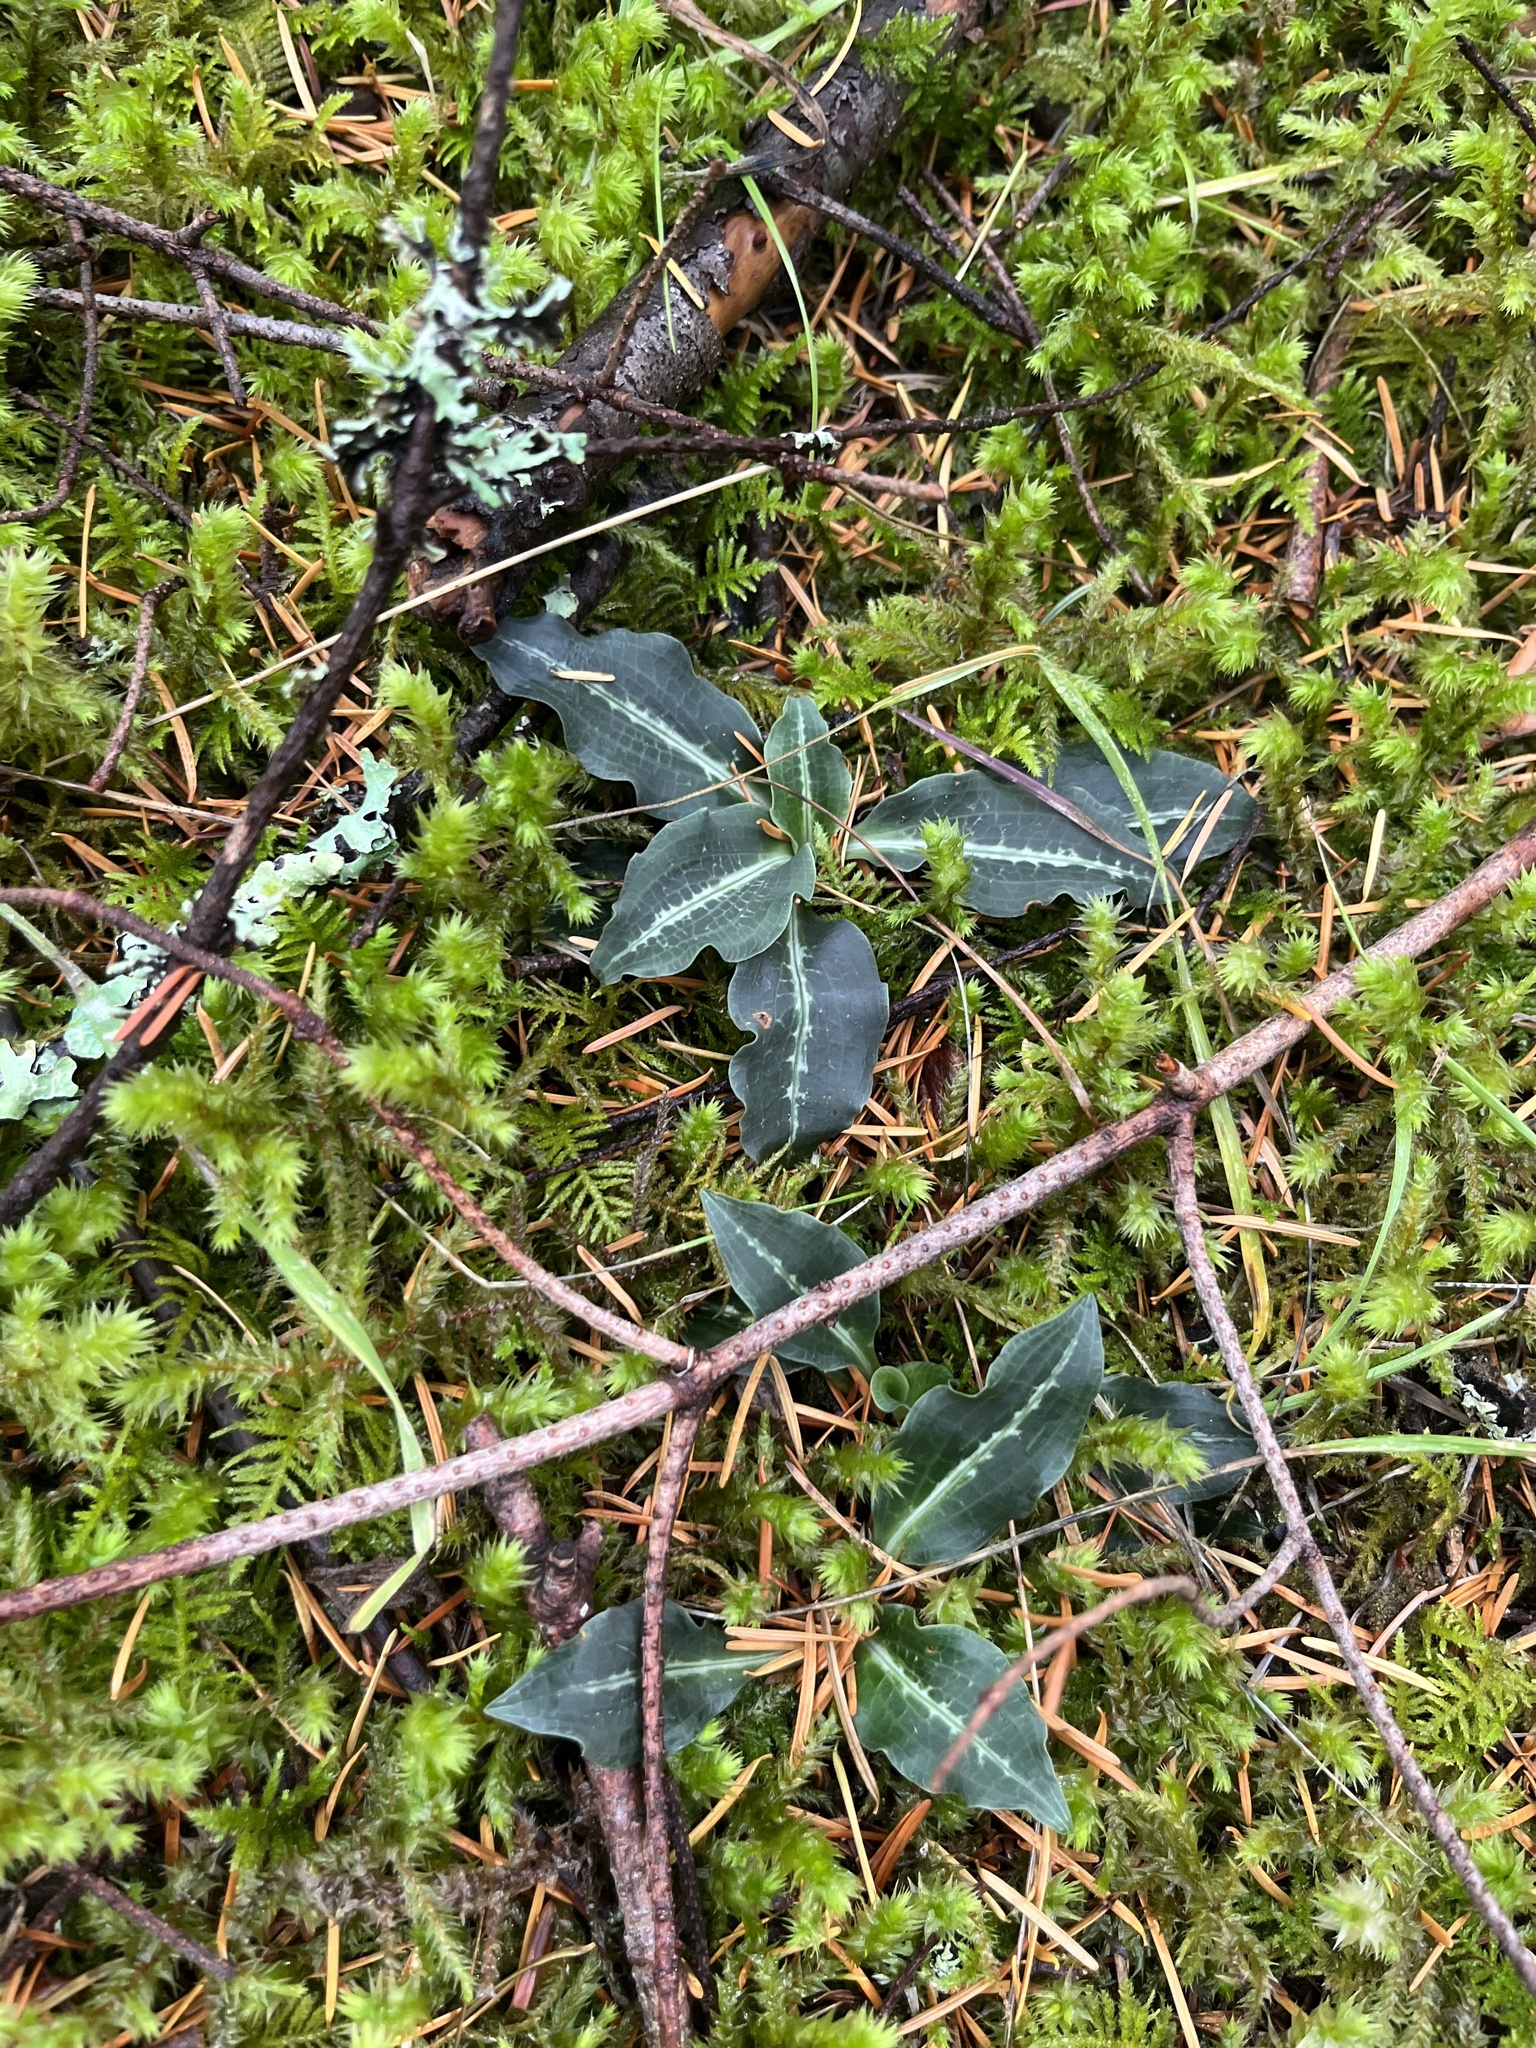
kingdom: Plantae
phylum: Tracheophyta
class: Liliopsida
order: Asparagales
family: Orchidaceae
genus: Goodyera
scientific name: Goodyera oblongifolia
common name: Giant rattlesnake-plantain
